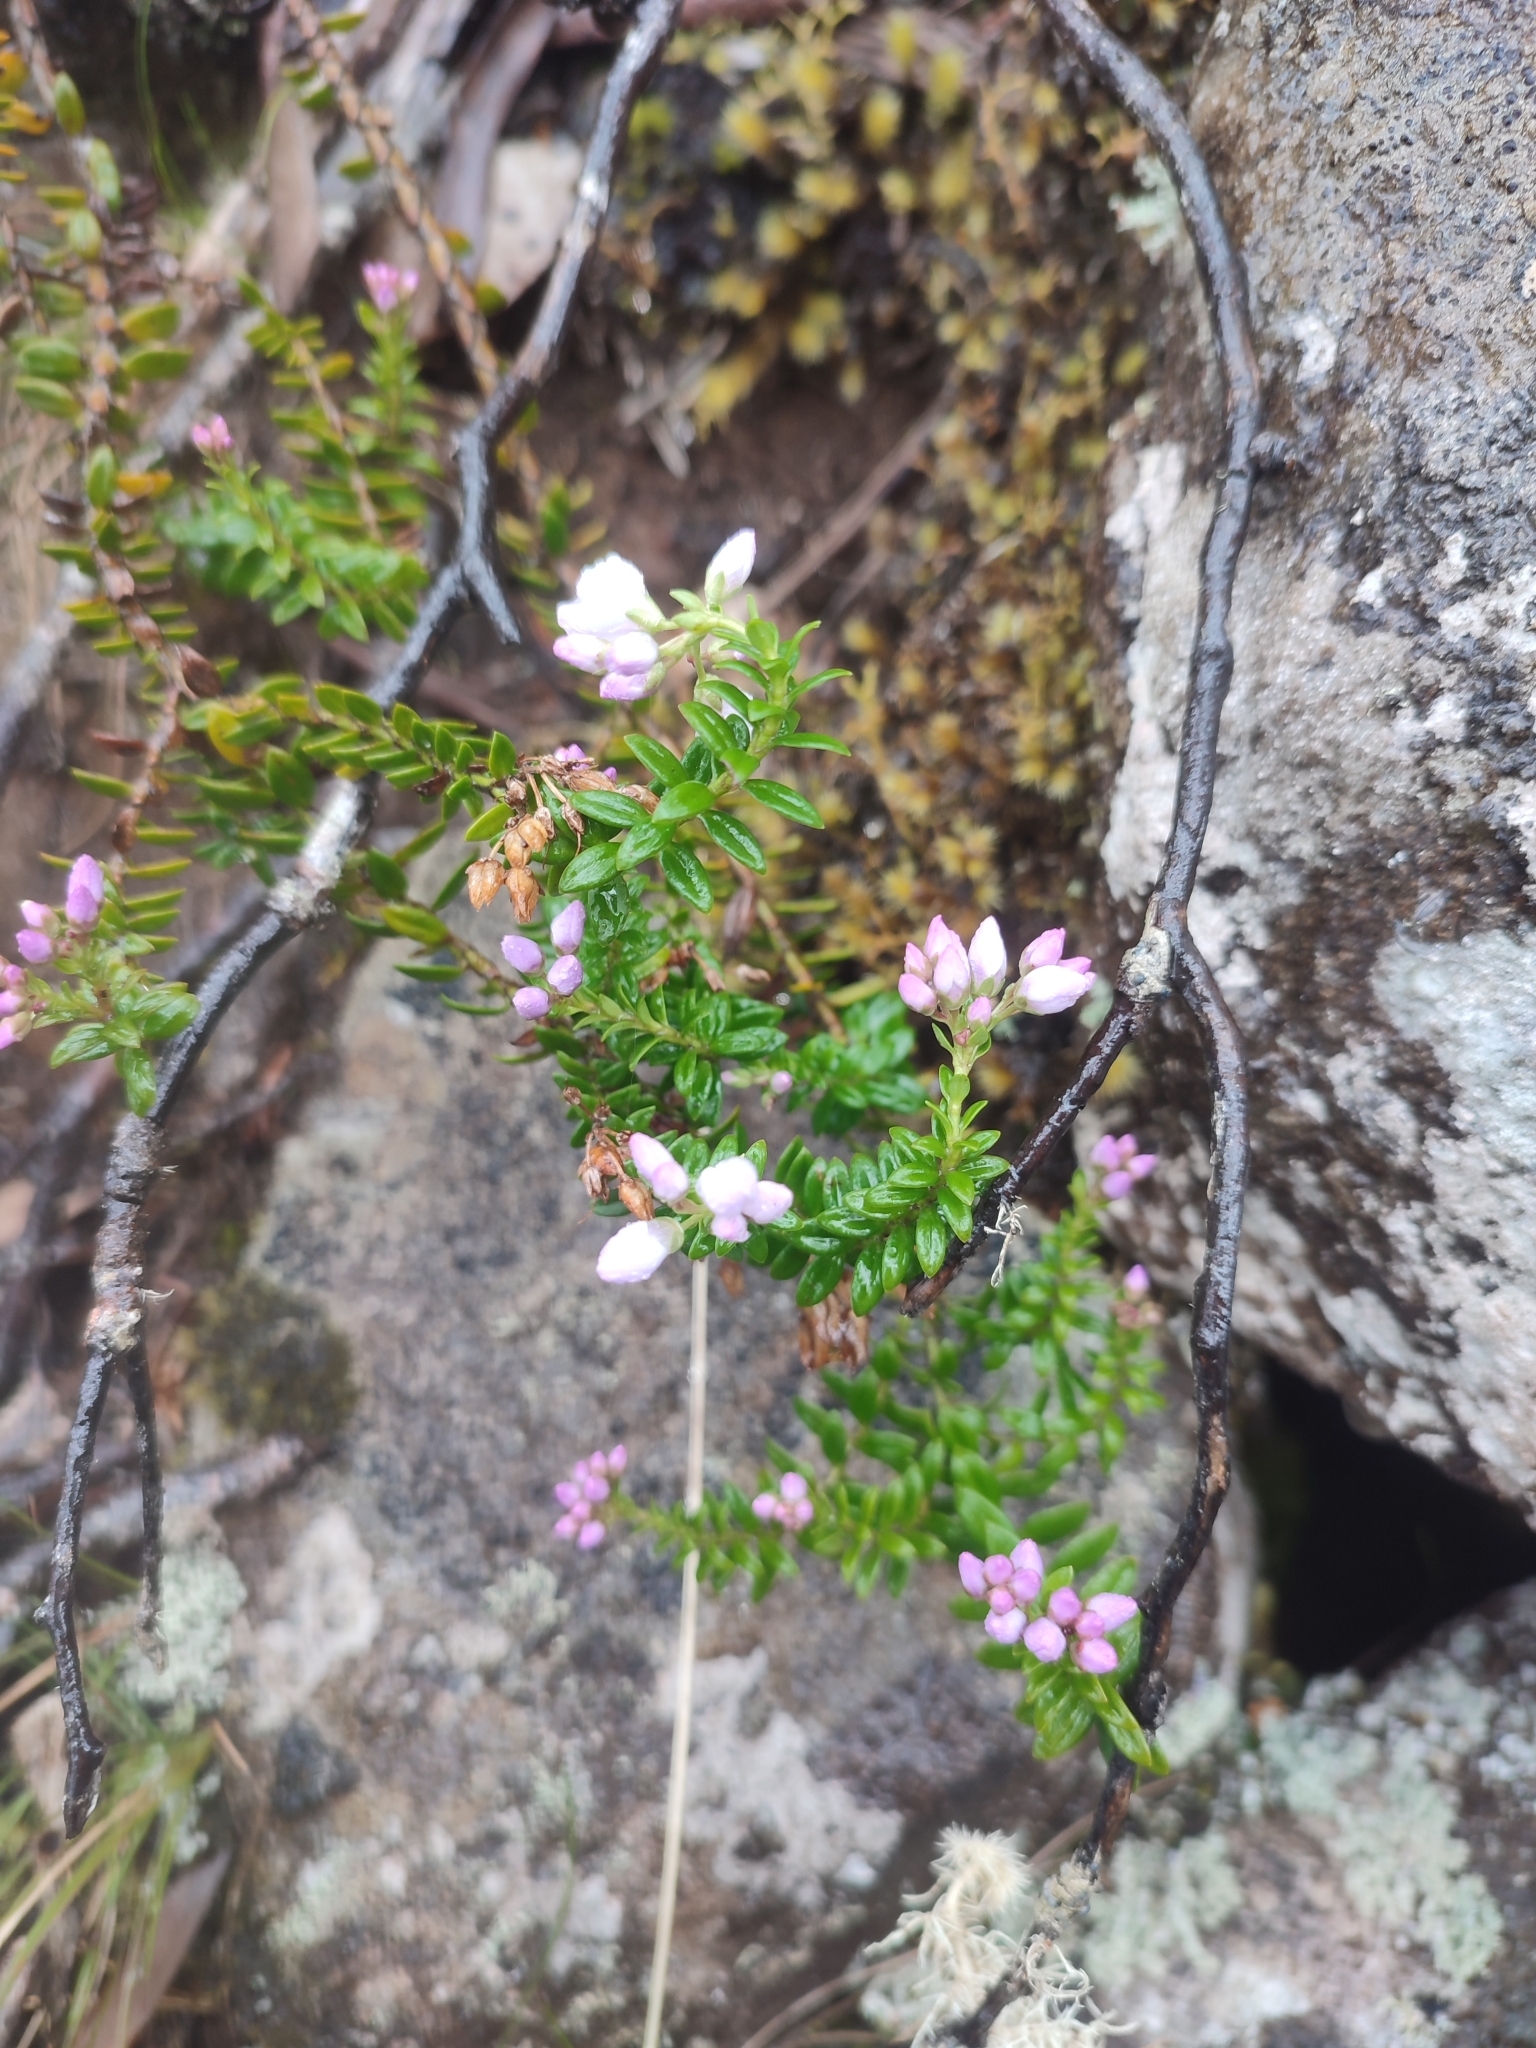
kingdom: Plantae
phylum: Tracheophyta
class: Magnoliopsida
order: Lamiales
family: Plantaginaceae
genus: Veronica
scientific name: Veronica formosa
